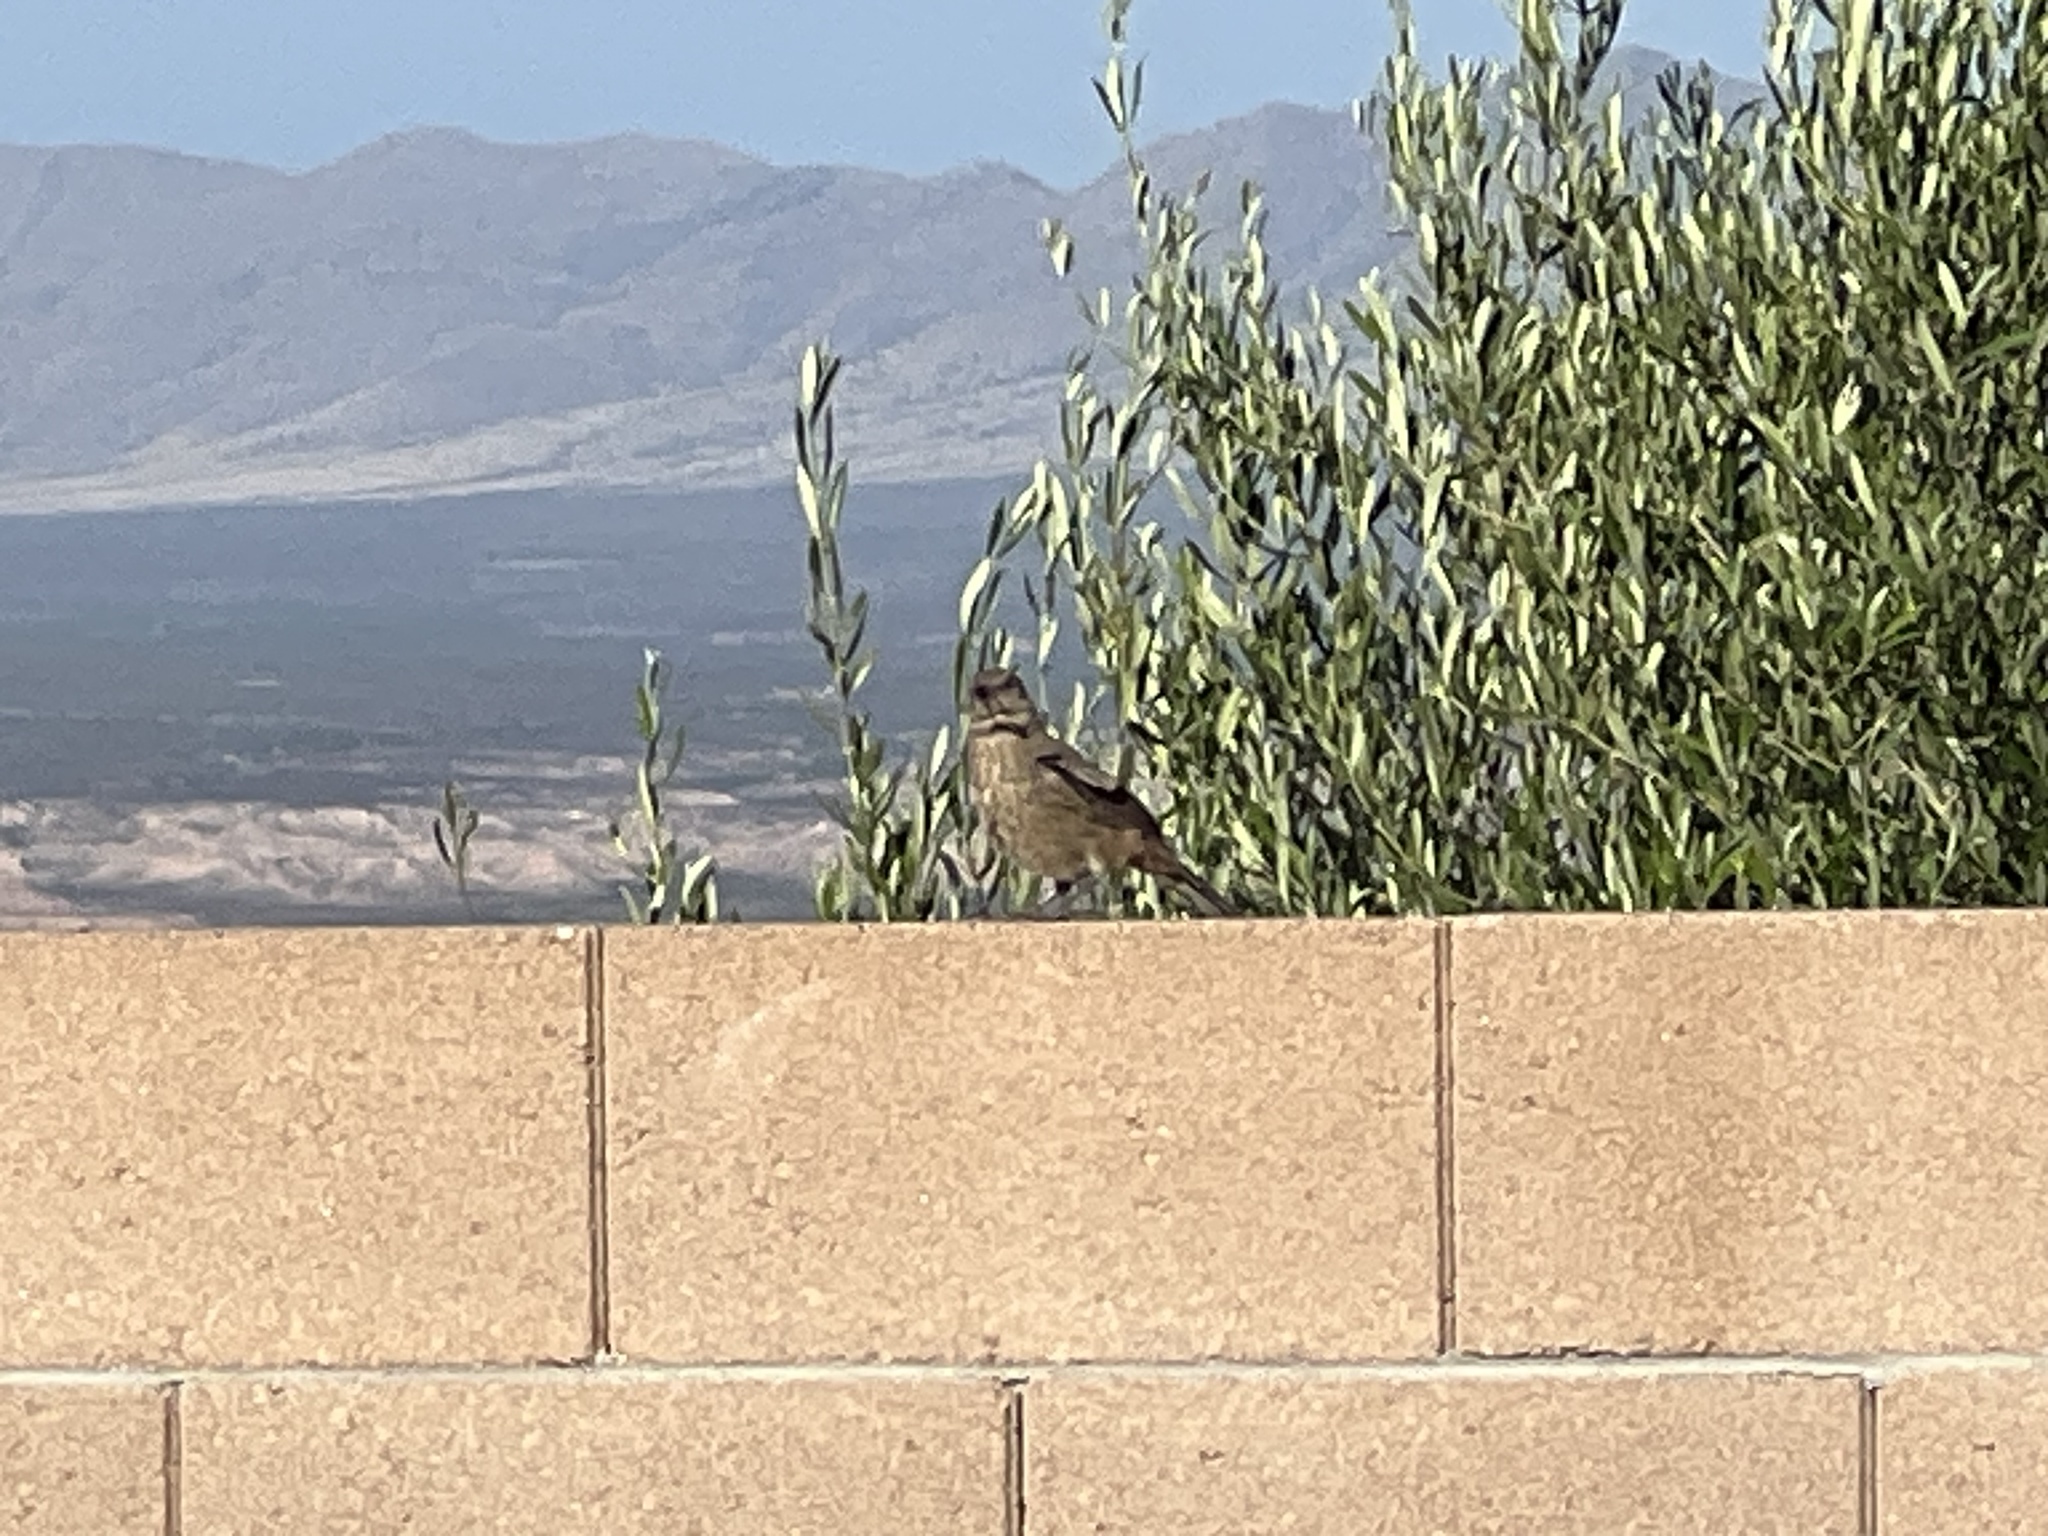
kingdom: Animalia
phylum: Chordata
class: Aves
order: Passeriformes
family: Mimidae
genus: Toxostoma
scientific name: Toxostoma curvirostre
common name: Curve-billed thrasher
